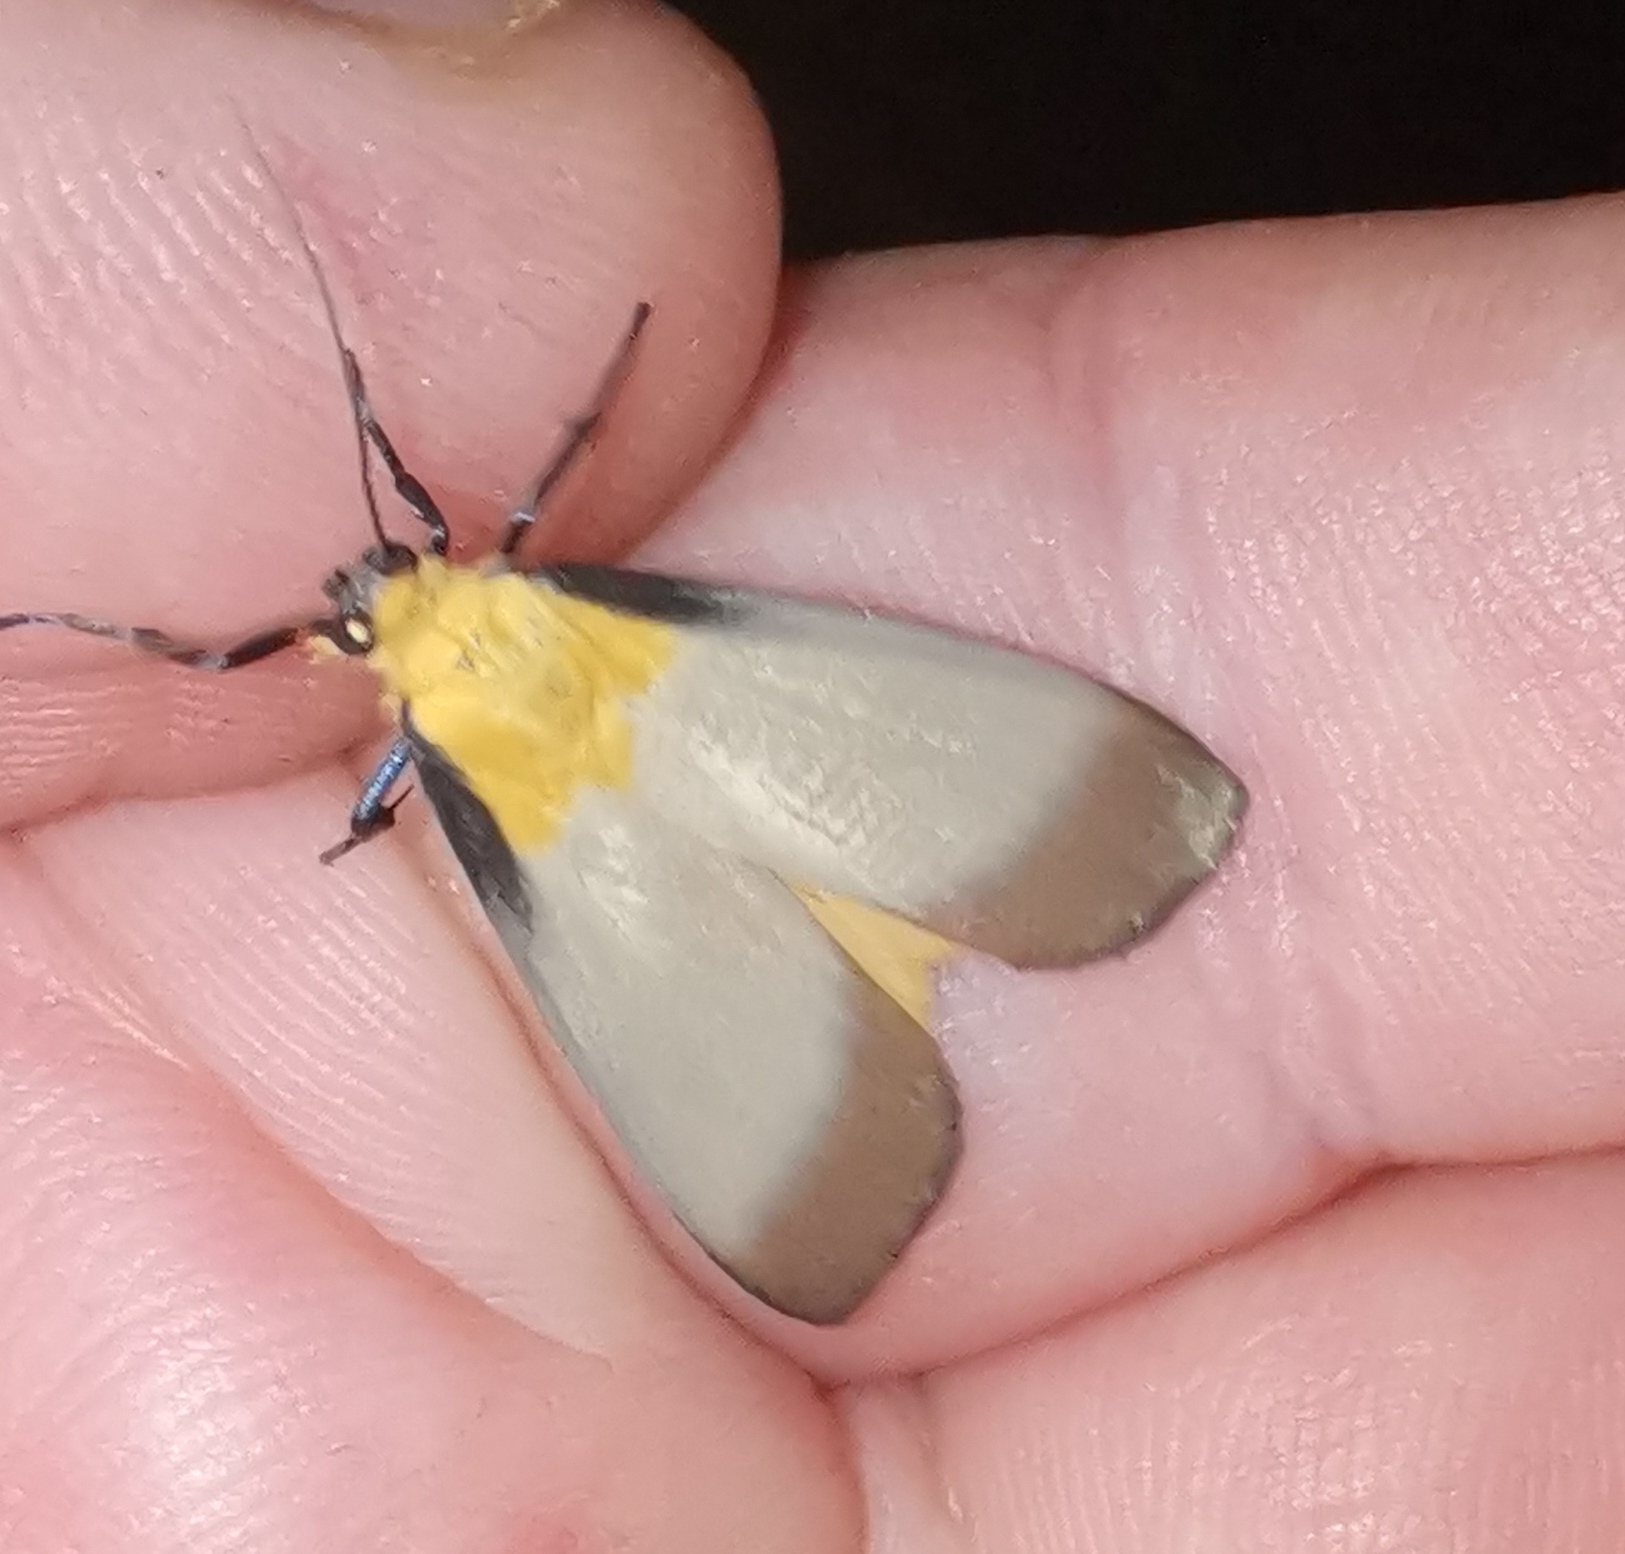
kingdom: Animalia
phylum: Arthropoda
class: Insecta
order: Lepidoptera
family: Erebidae
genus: Lithosia
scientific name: Lithosia quadra
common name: Four-spotted footman
